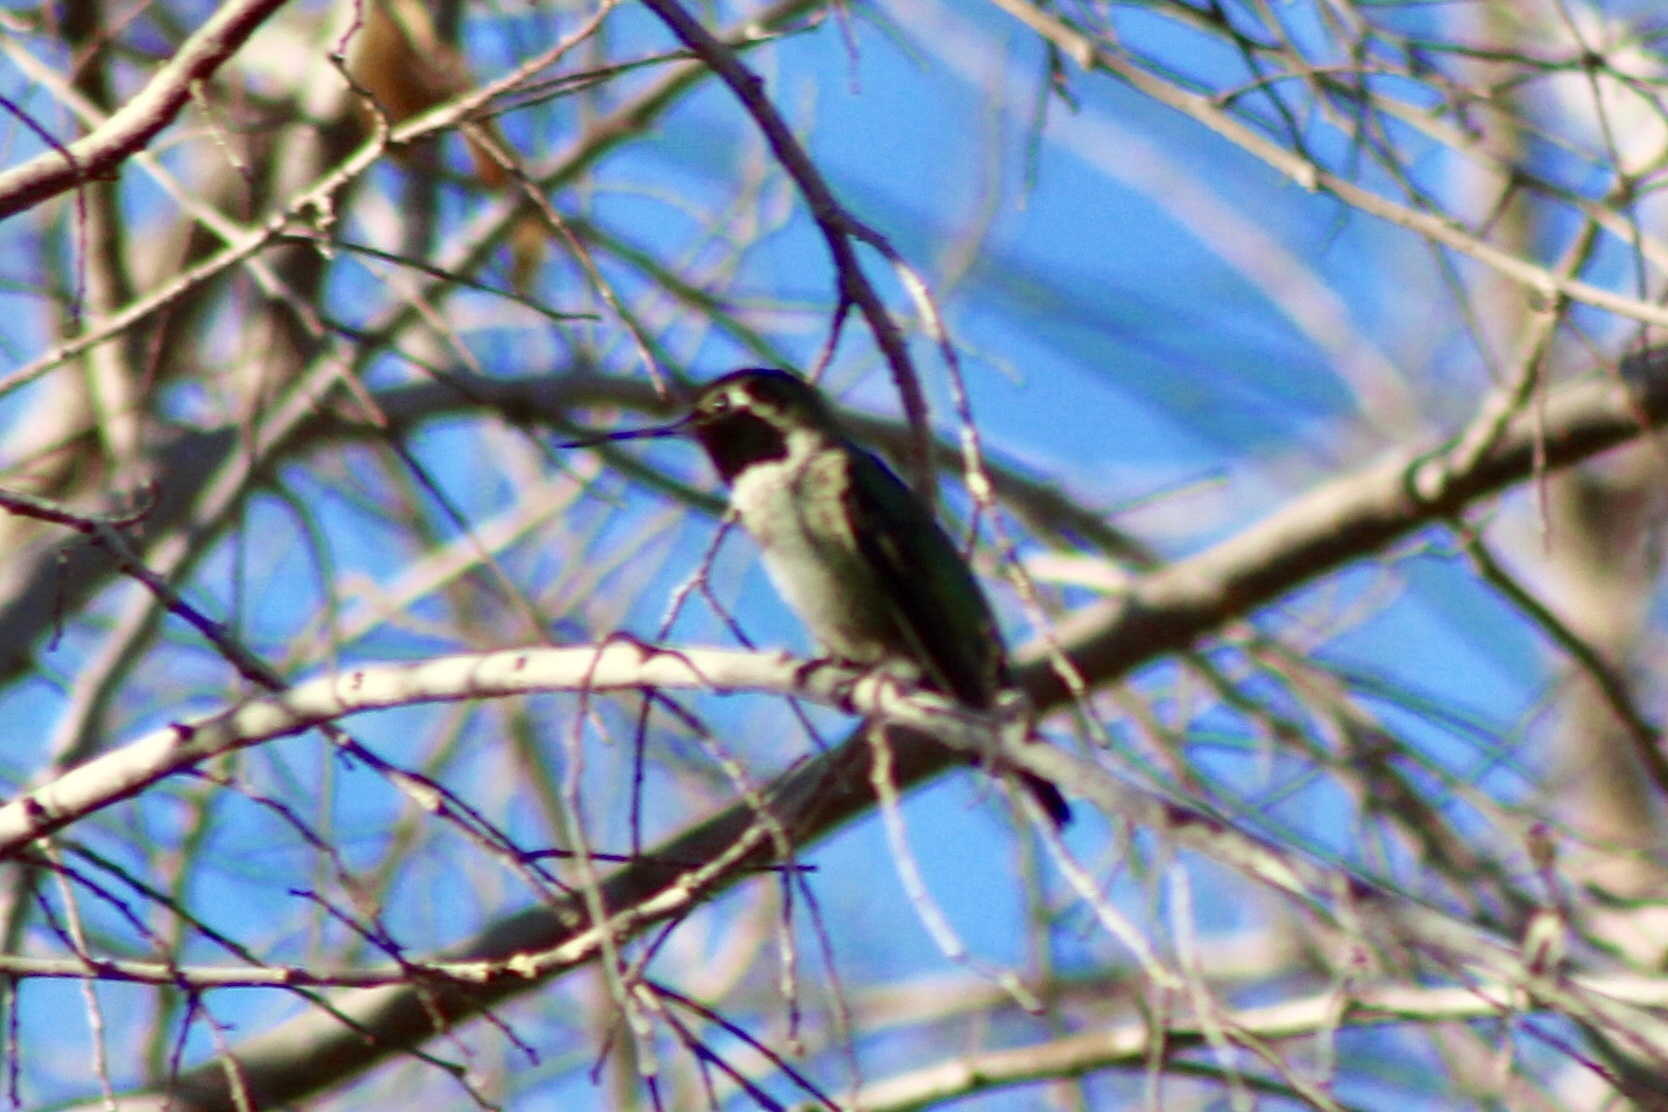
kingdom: Animalia
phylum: Chordata
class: Aves
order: Apodiformes
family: Trochilidae
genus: Calypte
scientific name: Calypte anna
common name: Anna's hummingbird
